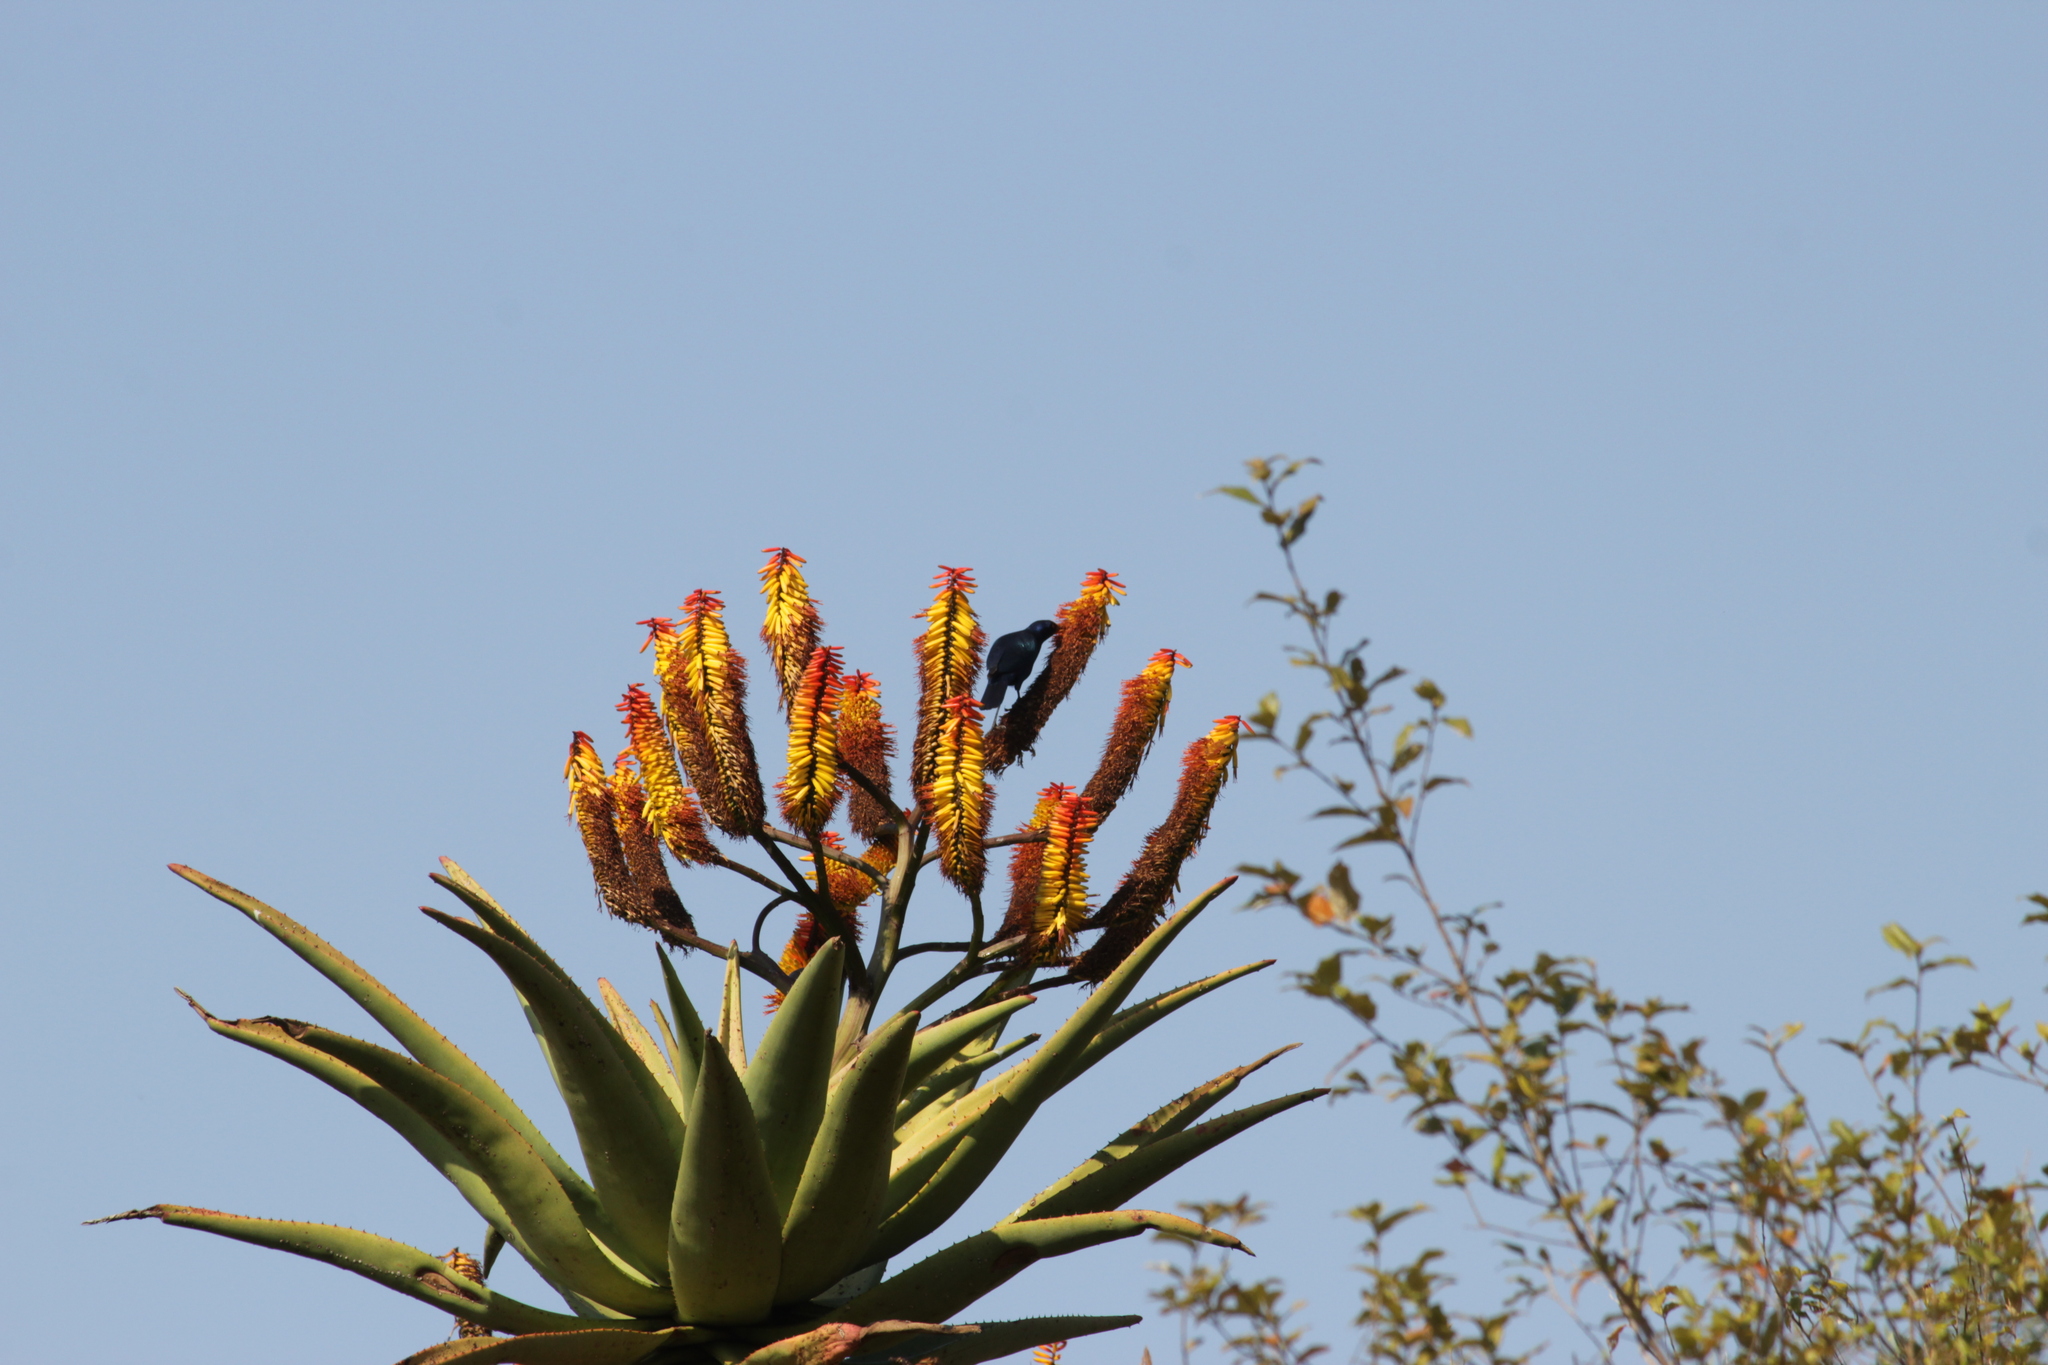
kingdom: Animalia
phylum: Chordata
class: Aves
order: Passeriformes
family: Sturnidae
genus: Lamprotornis
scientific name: Lamprotornis nitens
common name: Cape starling
